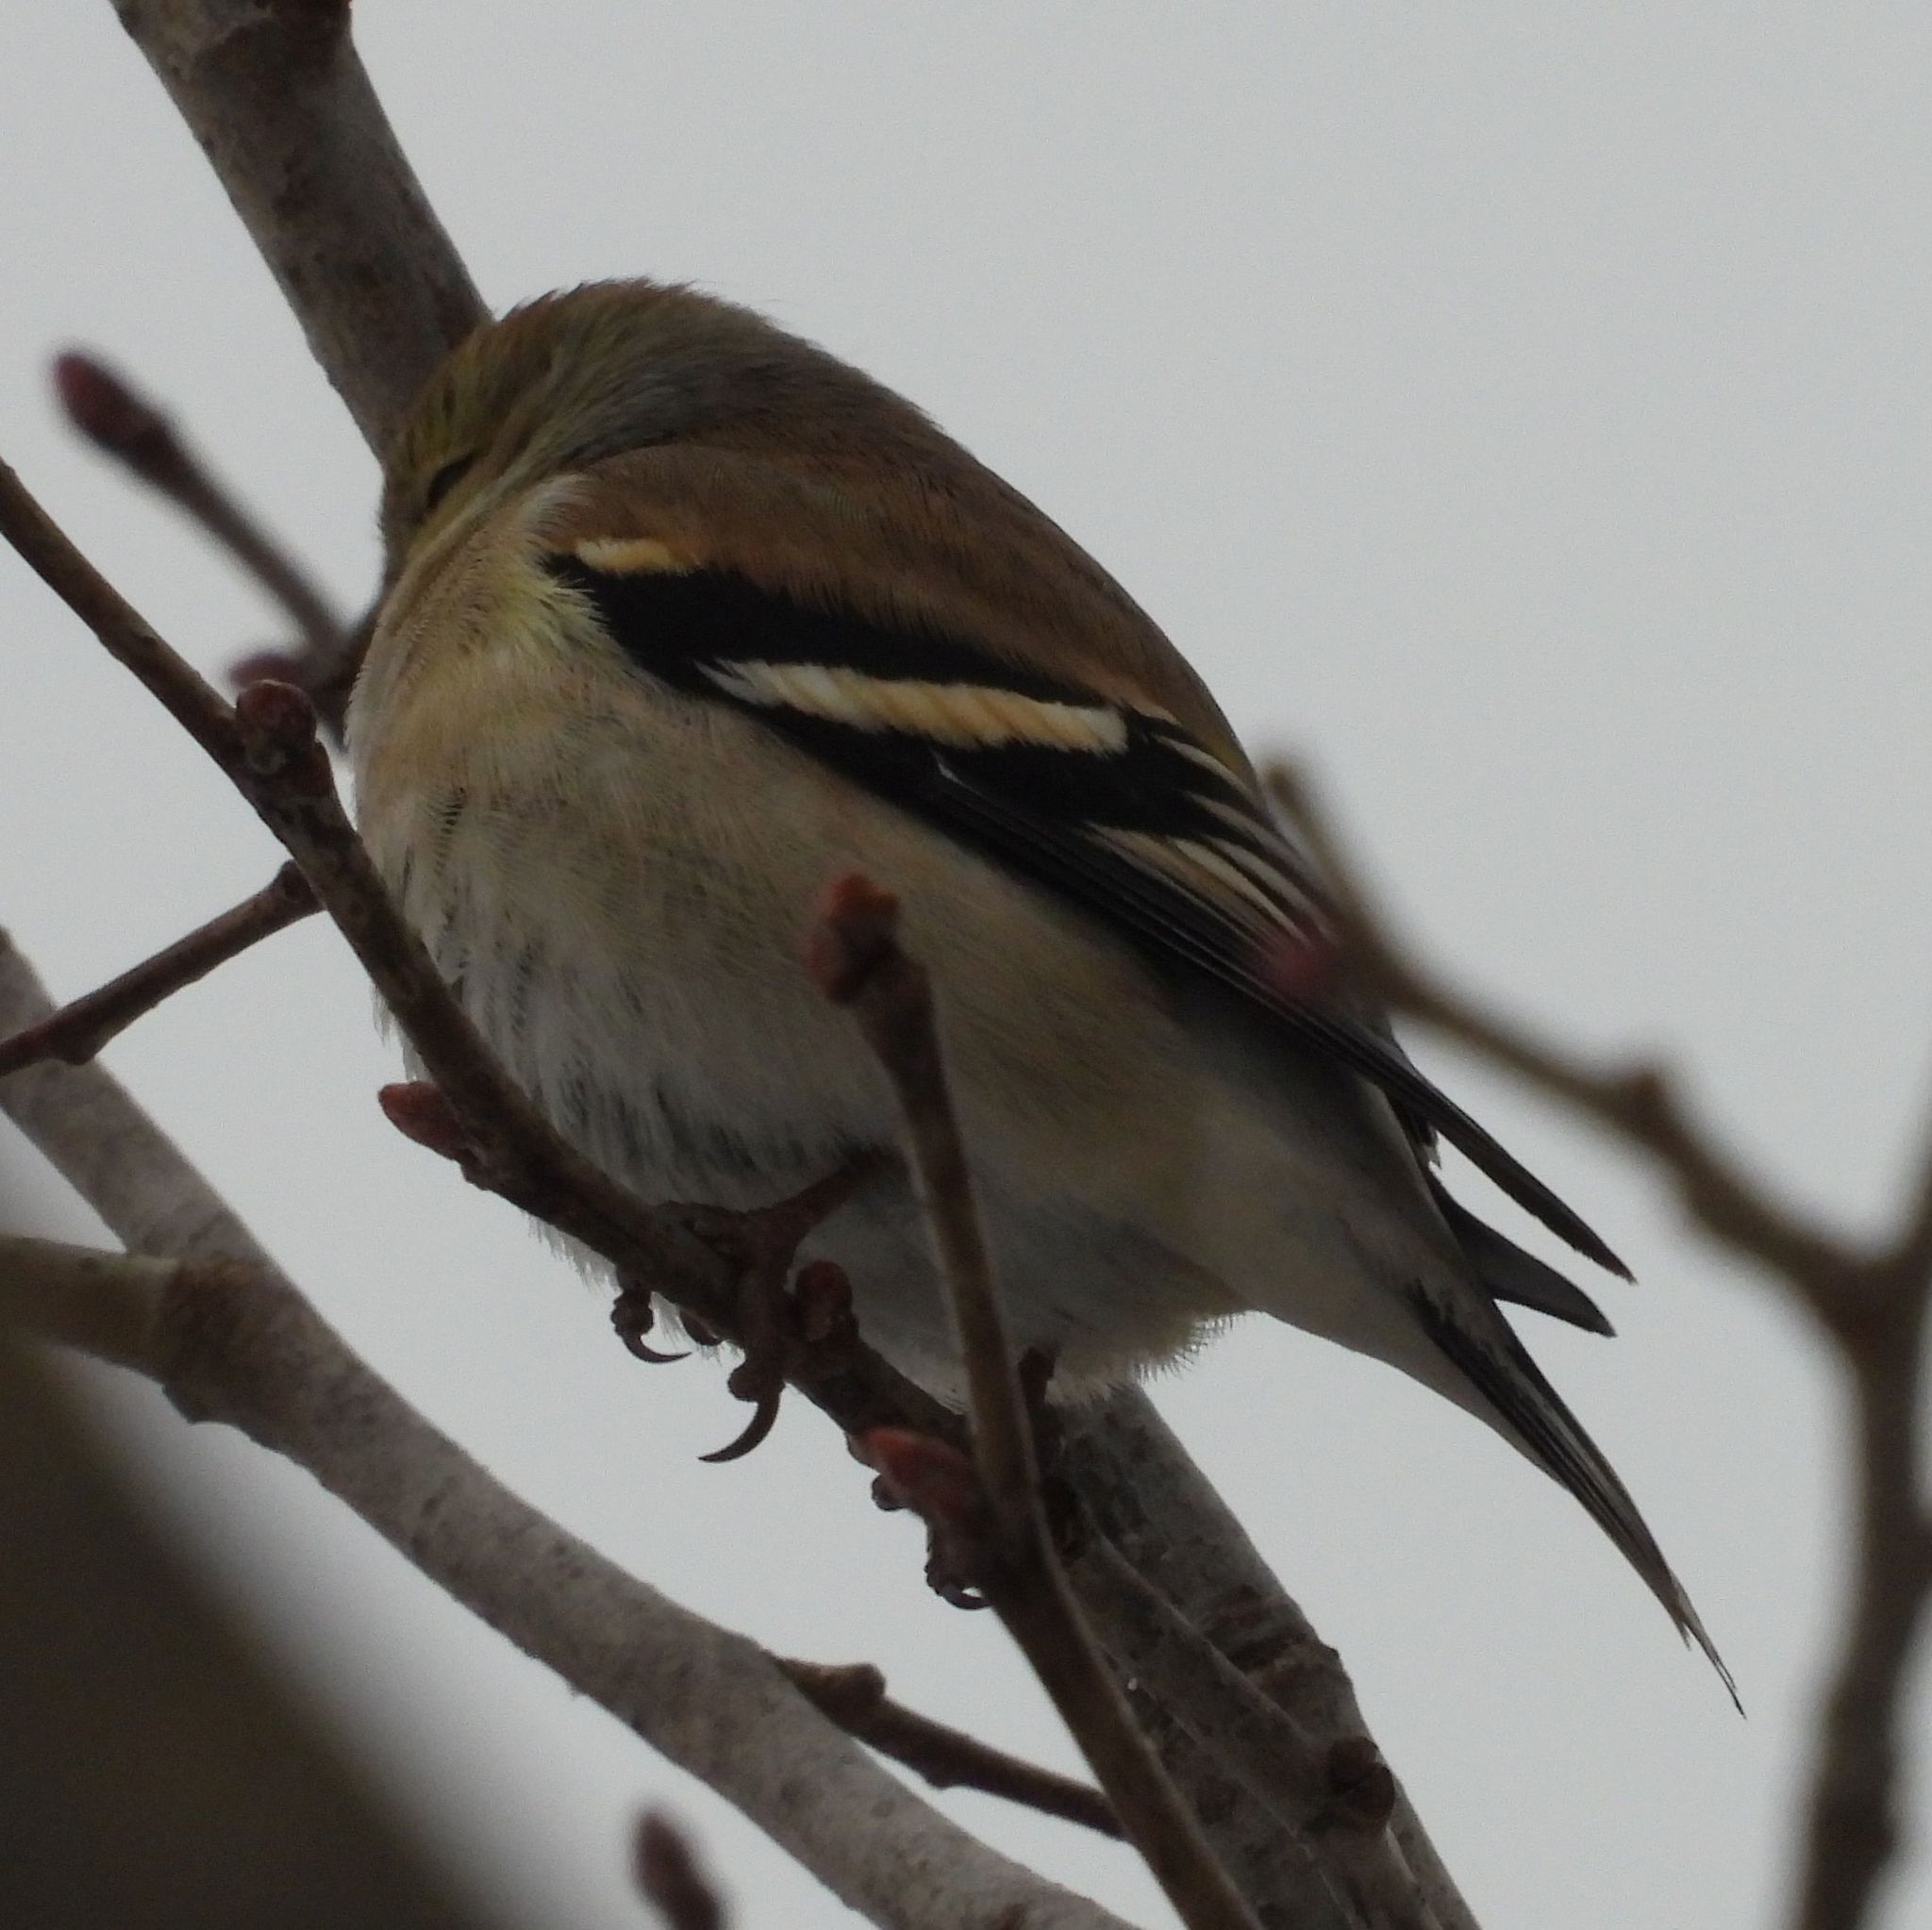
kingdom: Animalia
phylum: Chordata
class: Aves
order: Passeriformes
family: Fringillidae
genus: Spinus
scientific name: Spinus tristis
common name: American goldfinch
